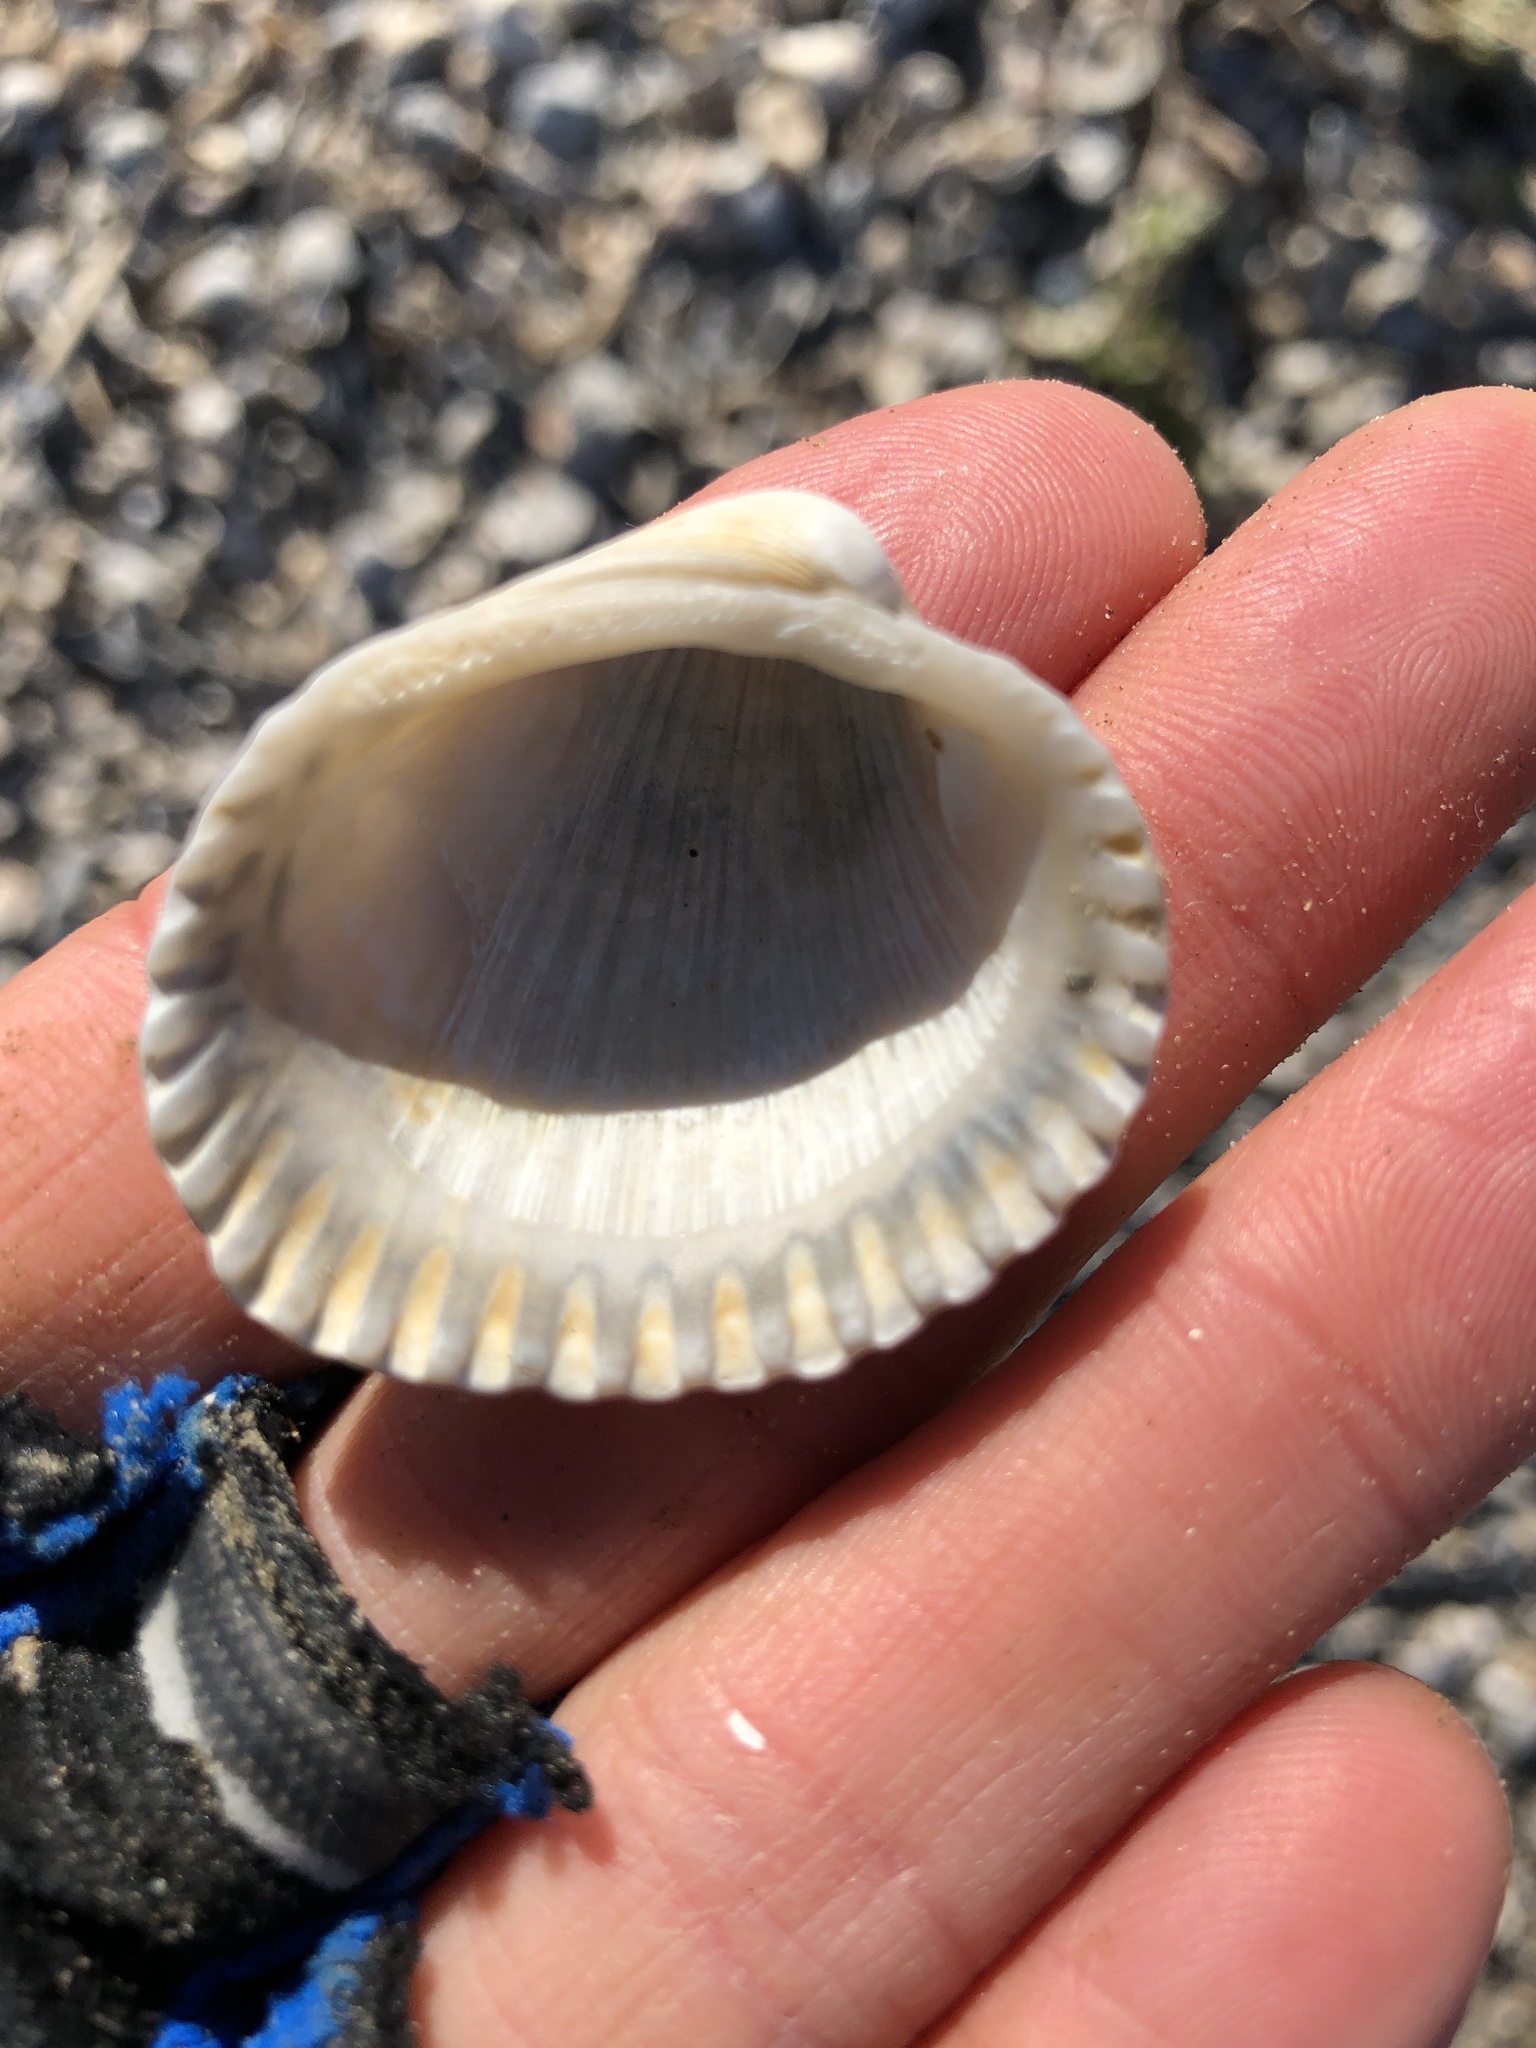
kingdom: Animalia
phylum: Mollusca
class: Bivalvia
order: Arcida
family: Arcidae
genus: Lunarca
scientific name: Lunarca ovalis
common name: Blood ark
